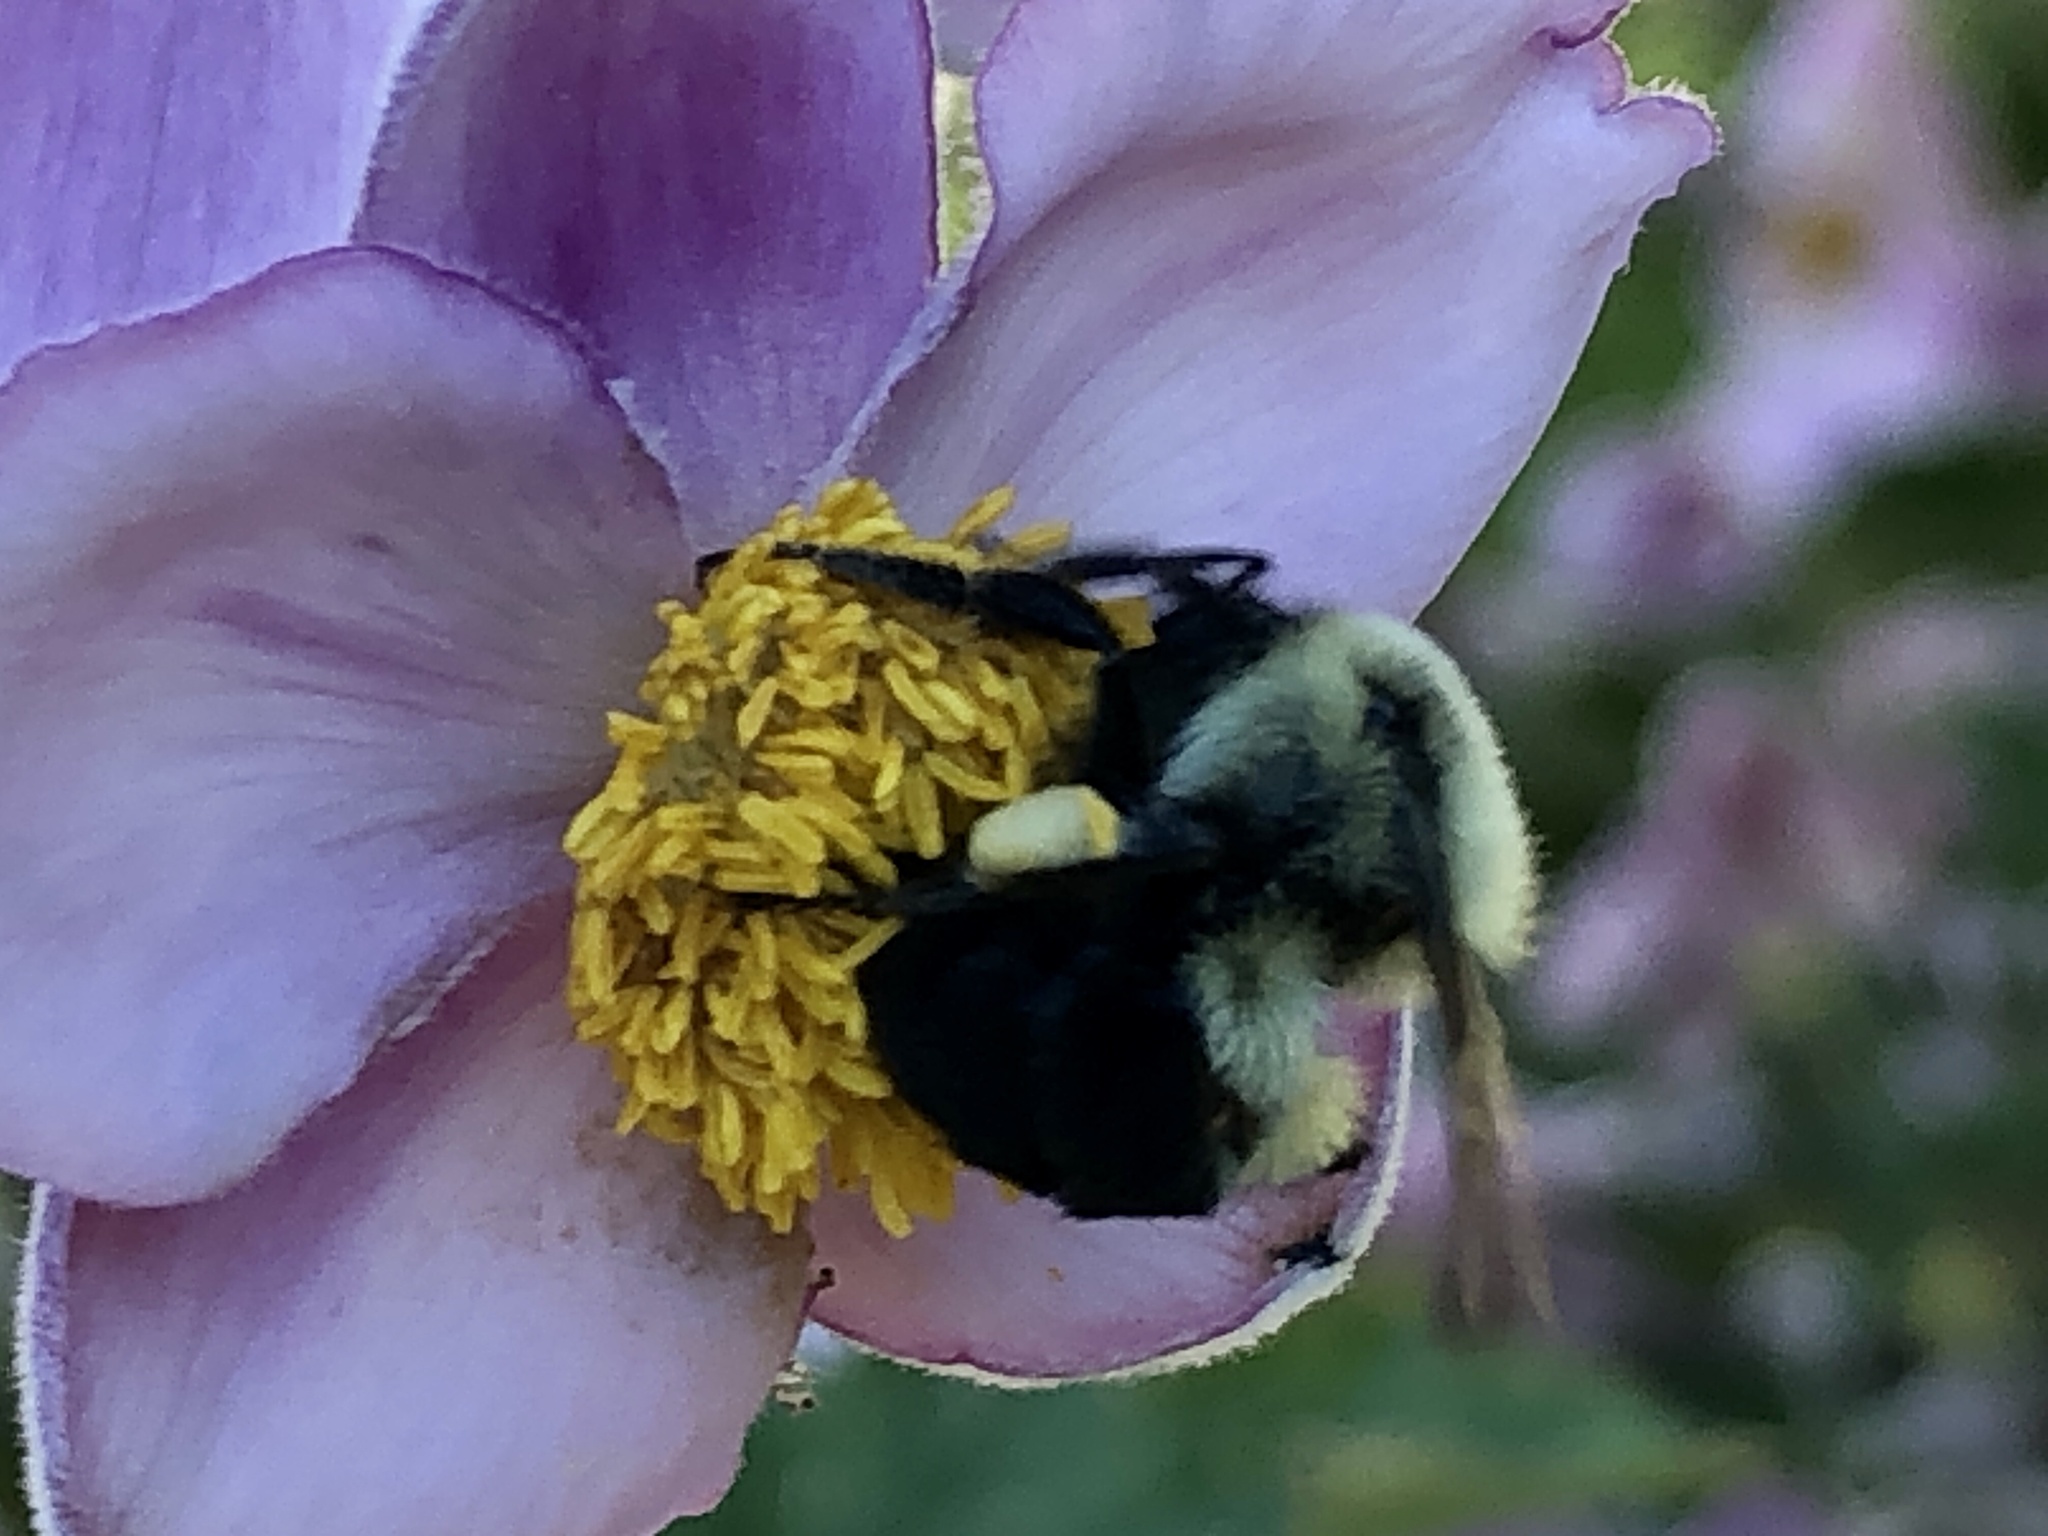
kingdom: Animalia
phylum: Arthropoda
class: Insecta
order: Hymenoptera
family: Apidae
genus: Bombus
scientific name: Bombus impatiens
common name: Common eastern bumble bee
